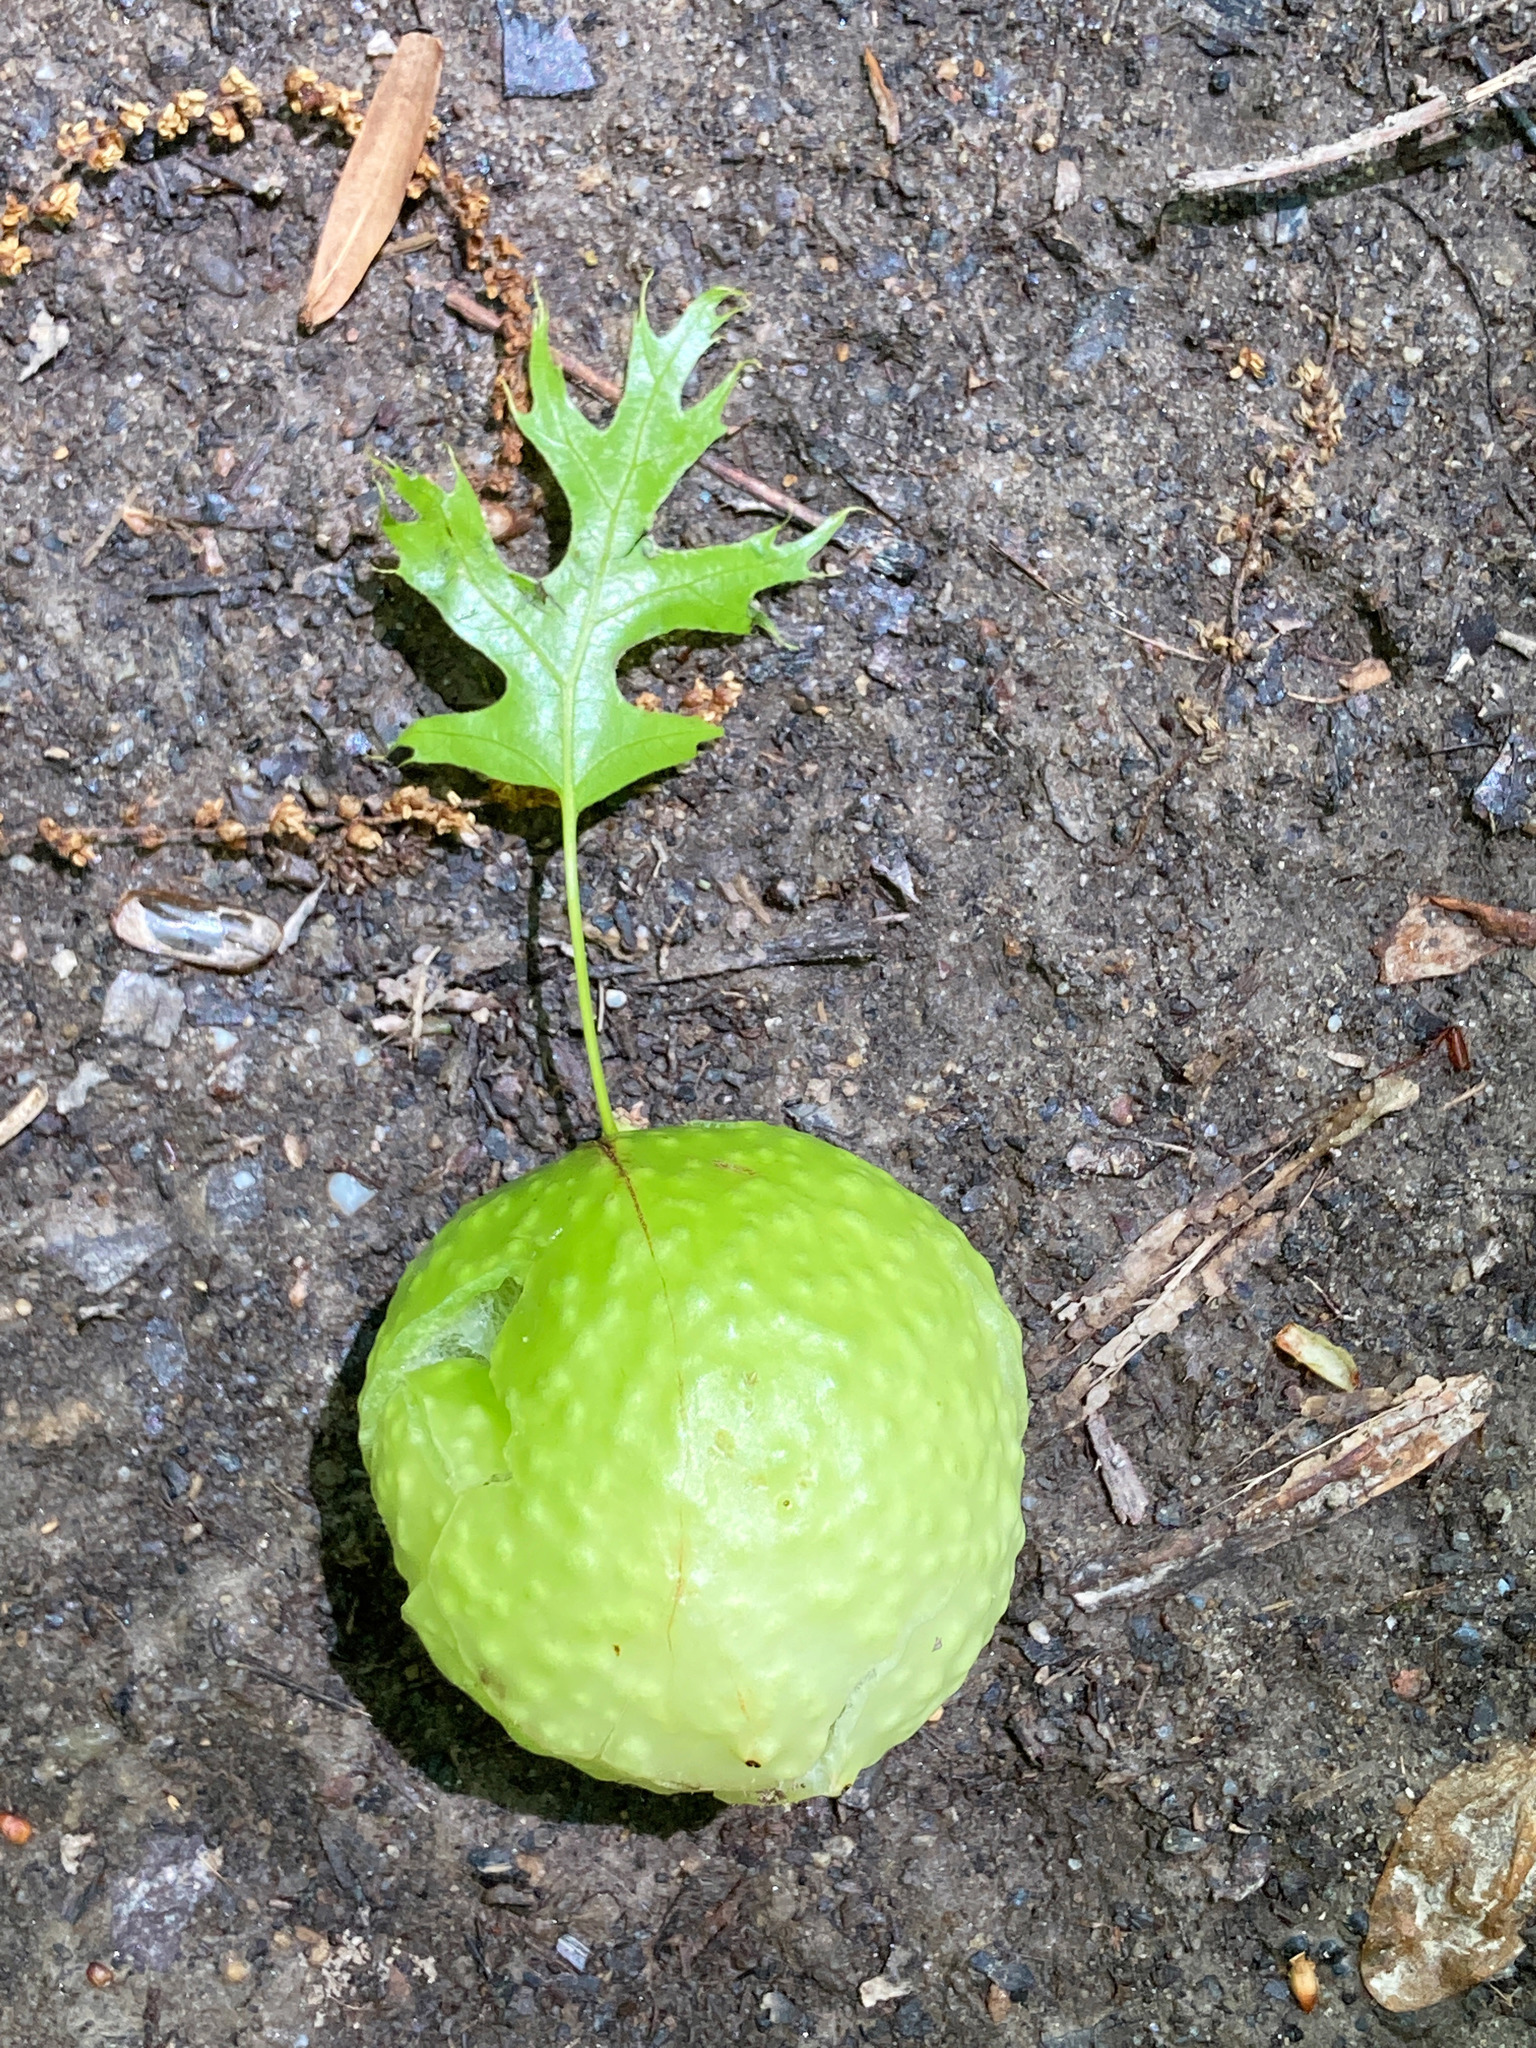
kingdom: Animalia
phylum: Arthropoda
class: Insecta
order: Hymenoptera
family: Cynipidae
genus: Amphibolips
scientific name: Amphibolips
